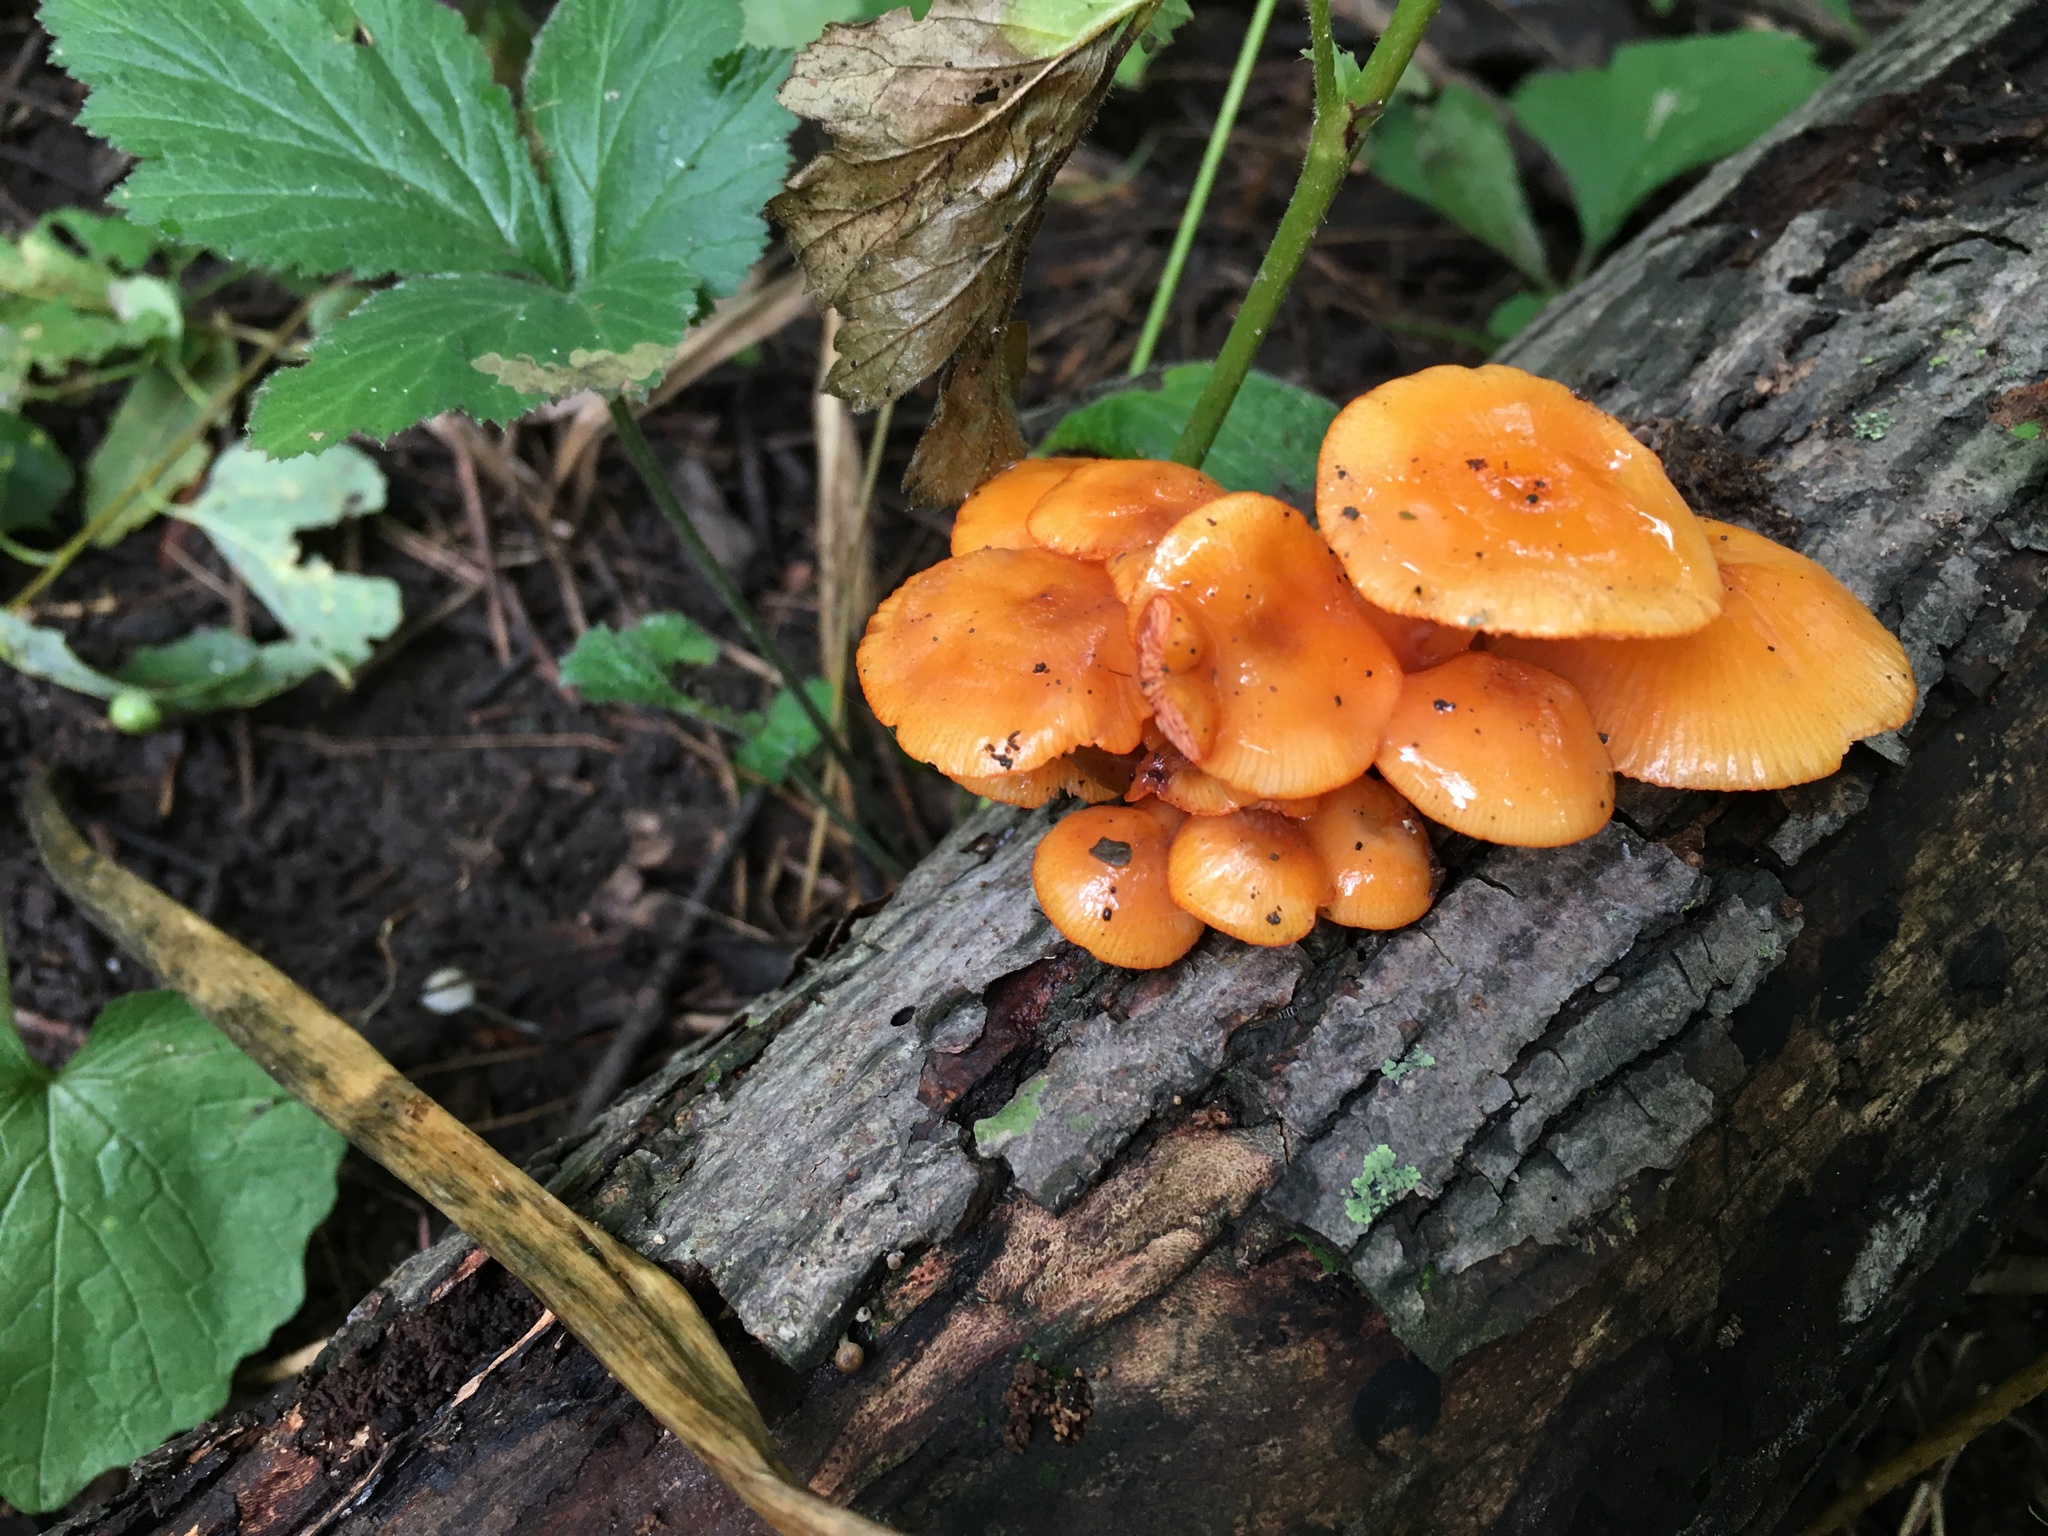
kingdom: Fungi
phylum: Basidiomycota
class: Agaricomycetes
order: Agaricales
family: Mycenaceae
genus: Mycena
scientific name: Mycena leaiana
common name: Orange mycena
